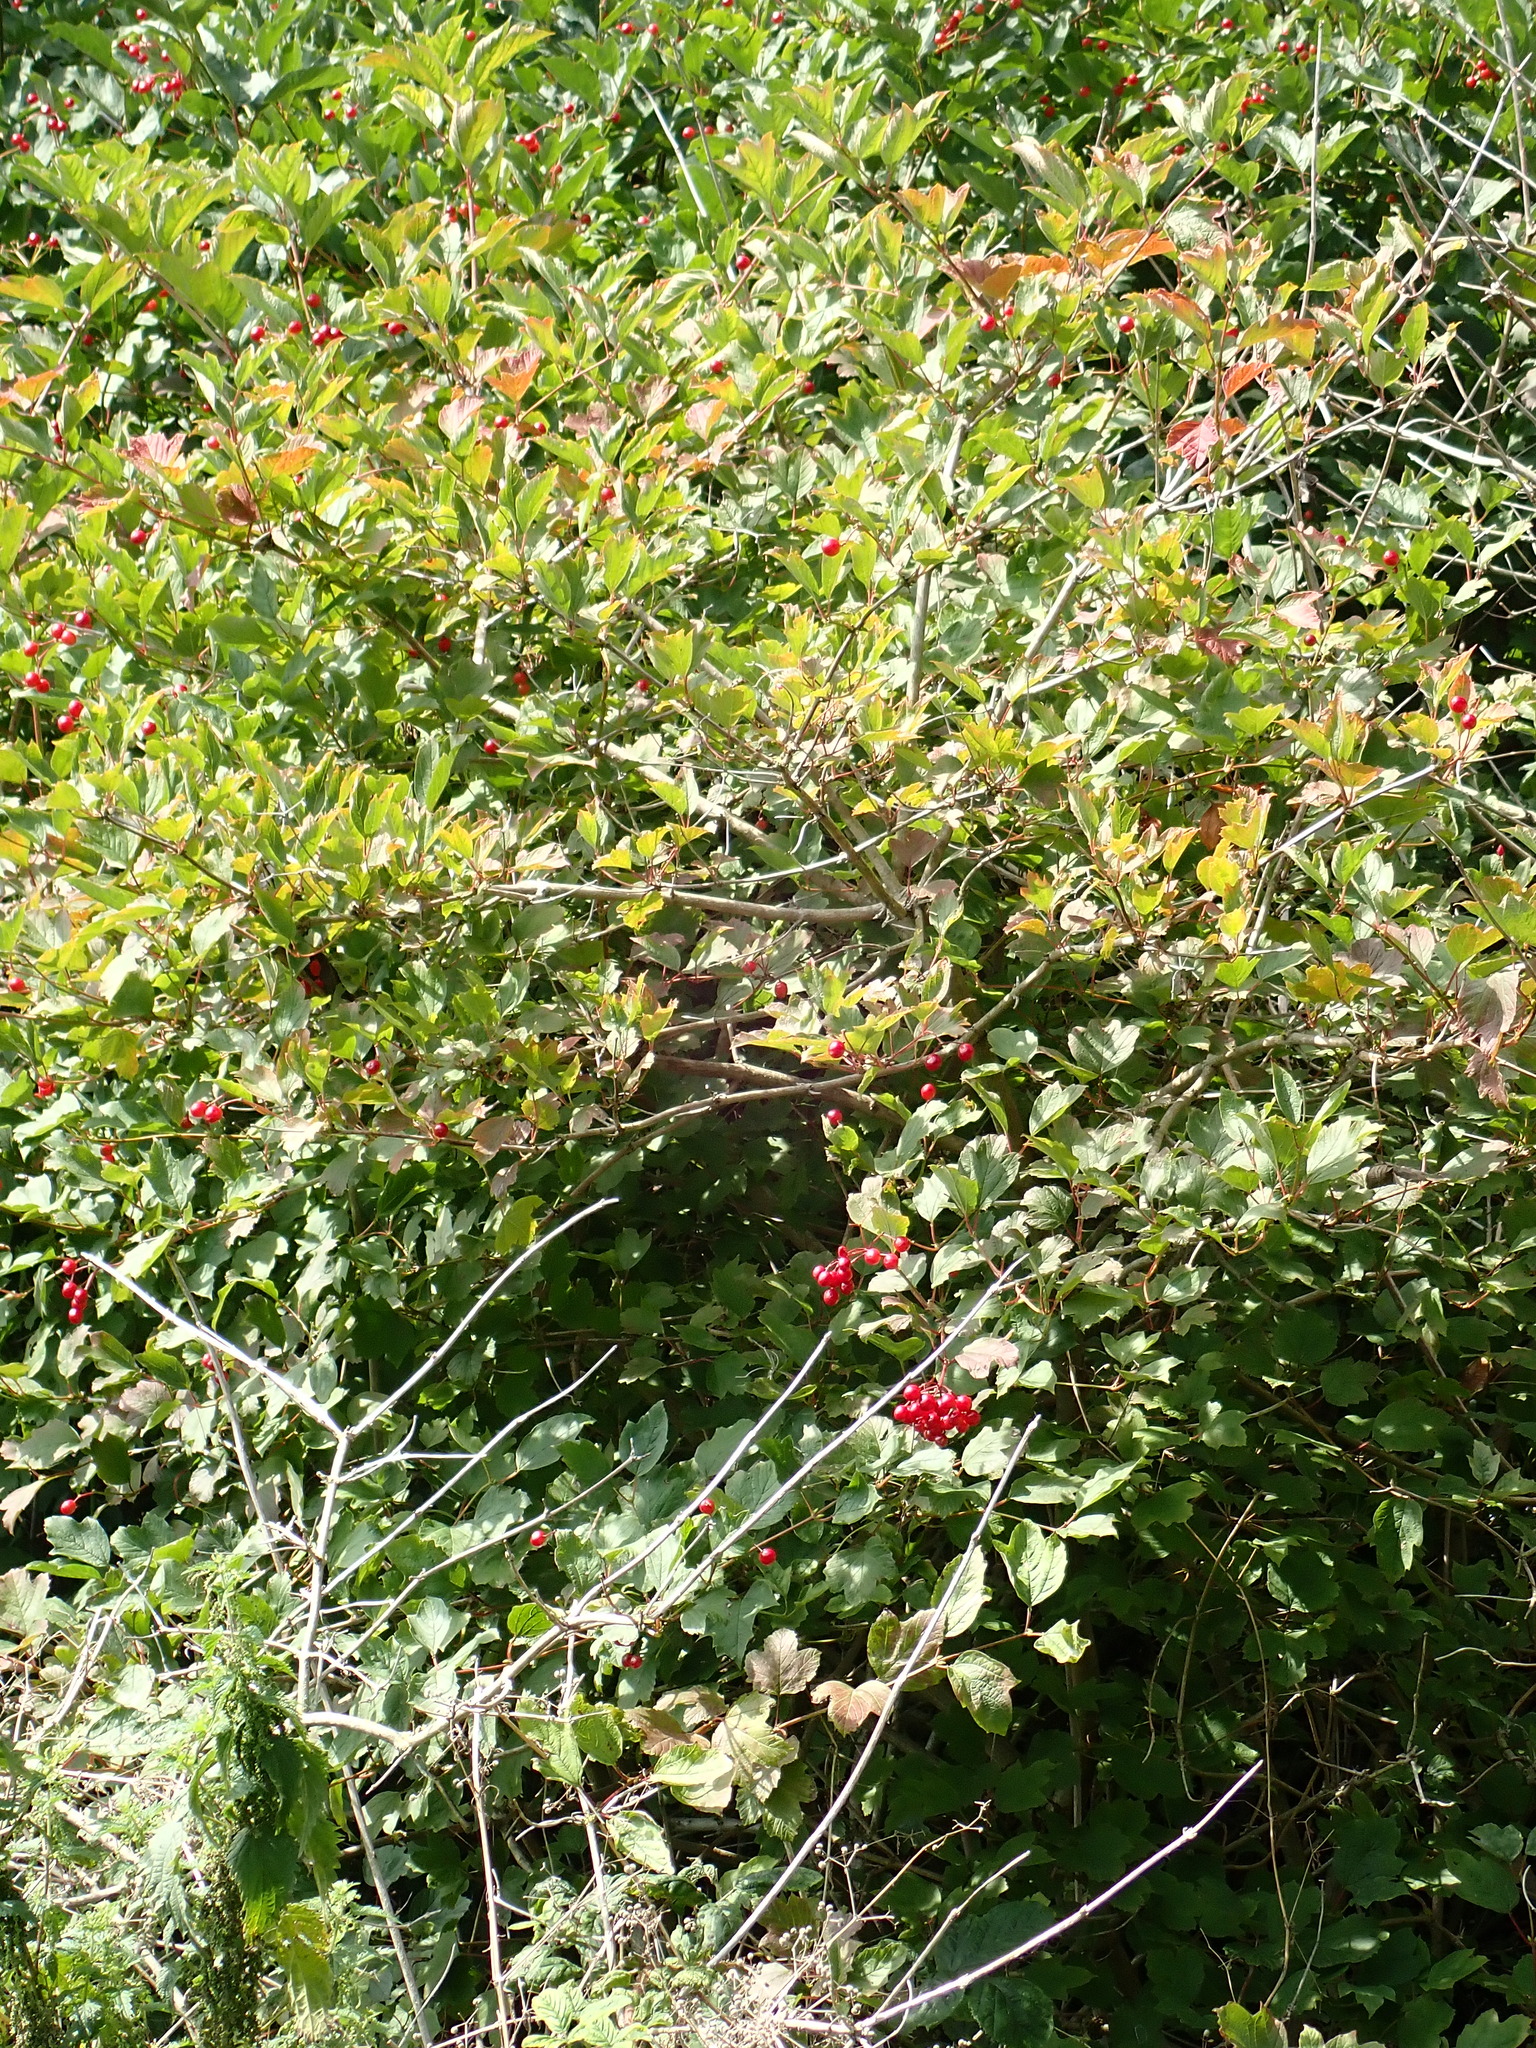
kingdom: Plantae
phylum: Tracheophyta
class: Magnoliopsida
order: Dipsacales
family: Viburnaceae
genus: Viburnum
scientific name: Viburnum opulus
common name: Guelder-rose
